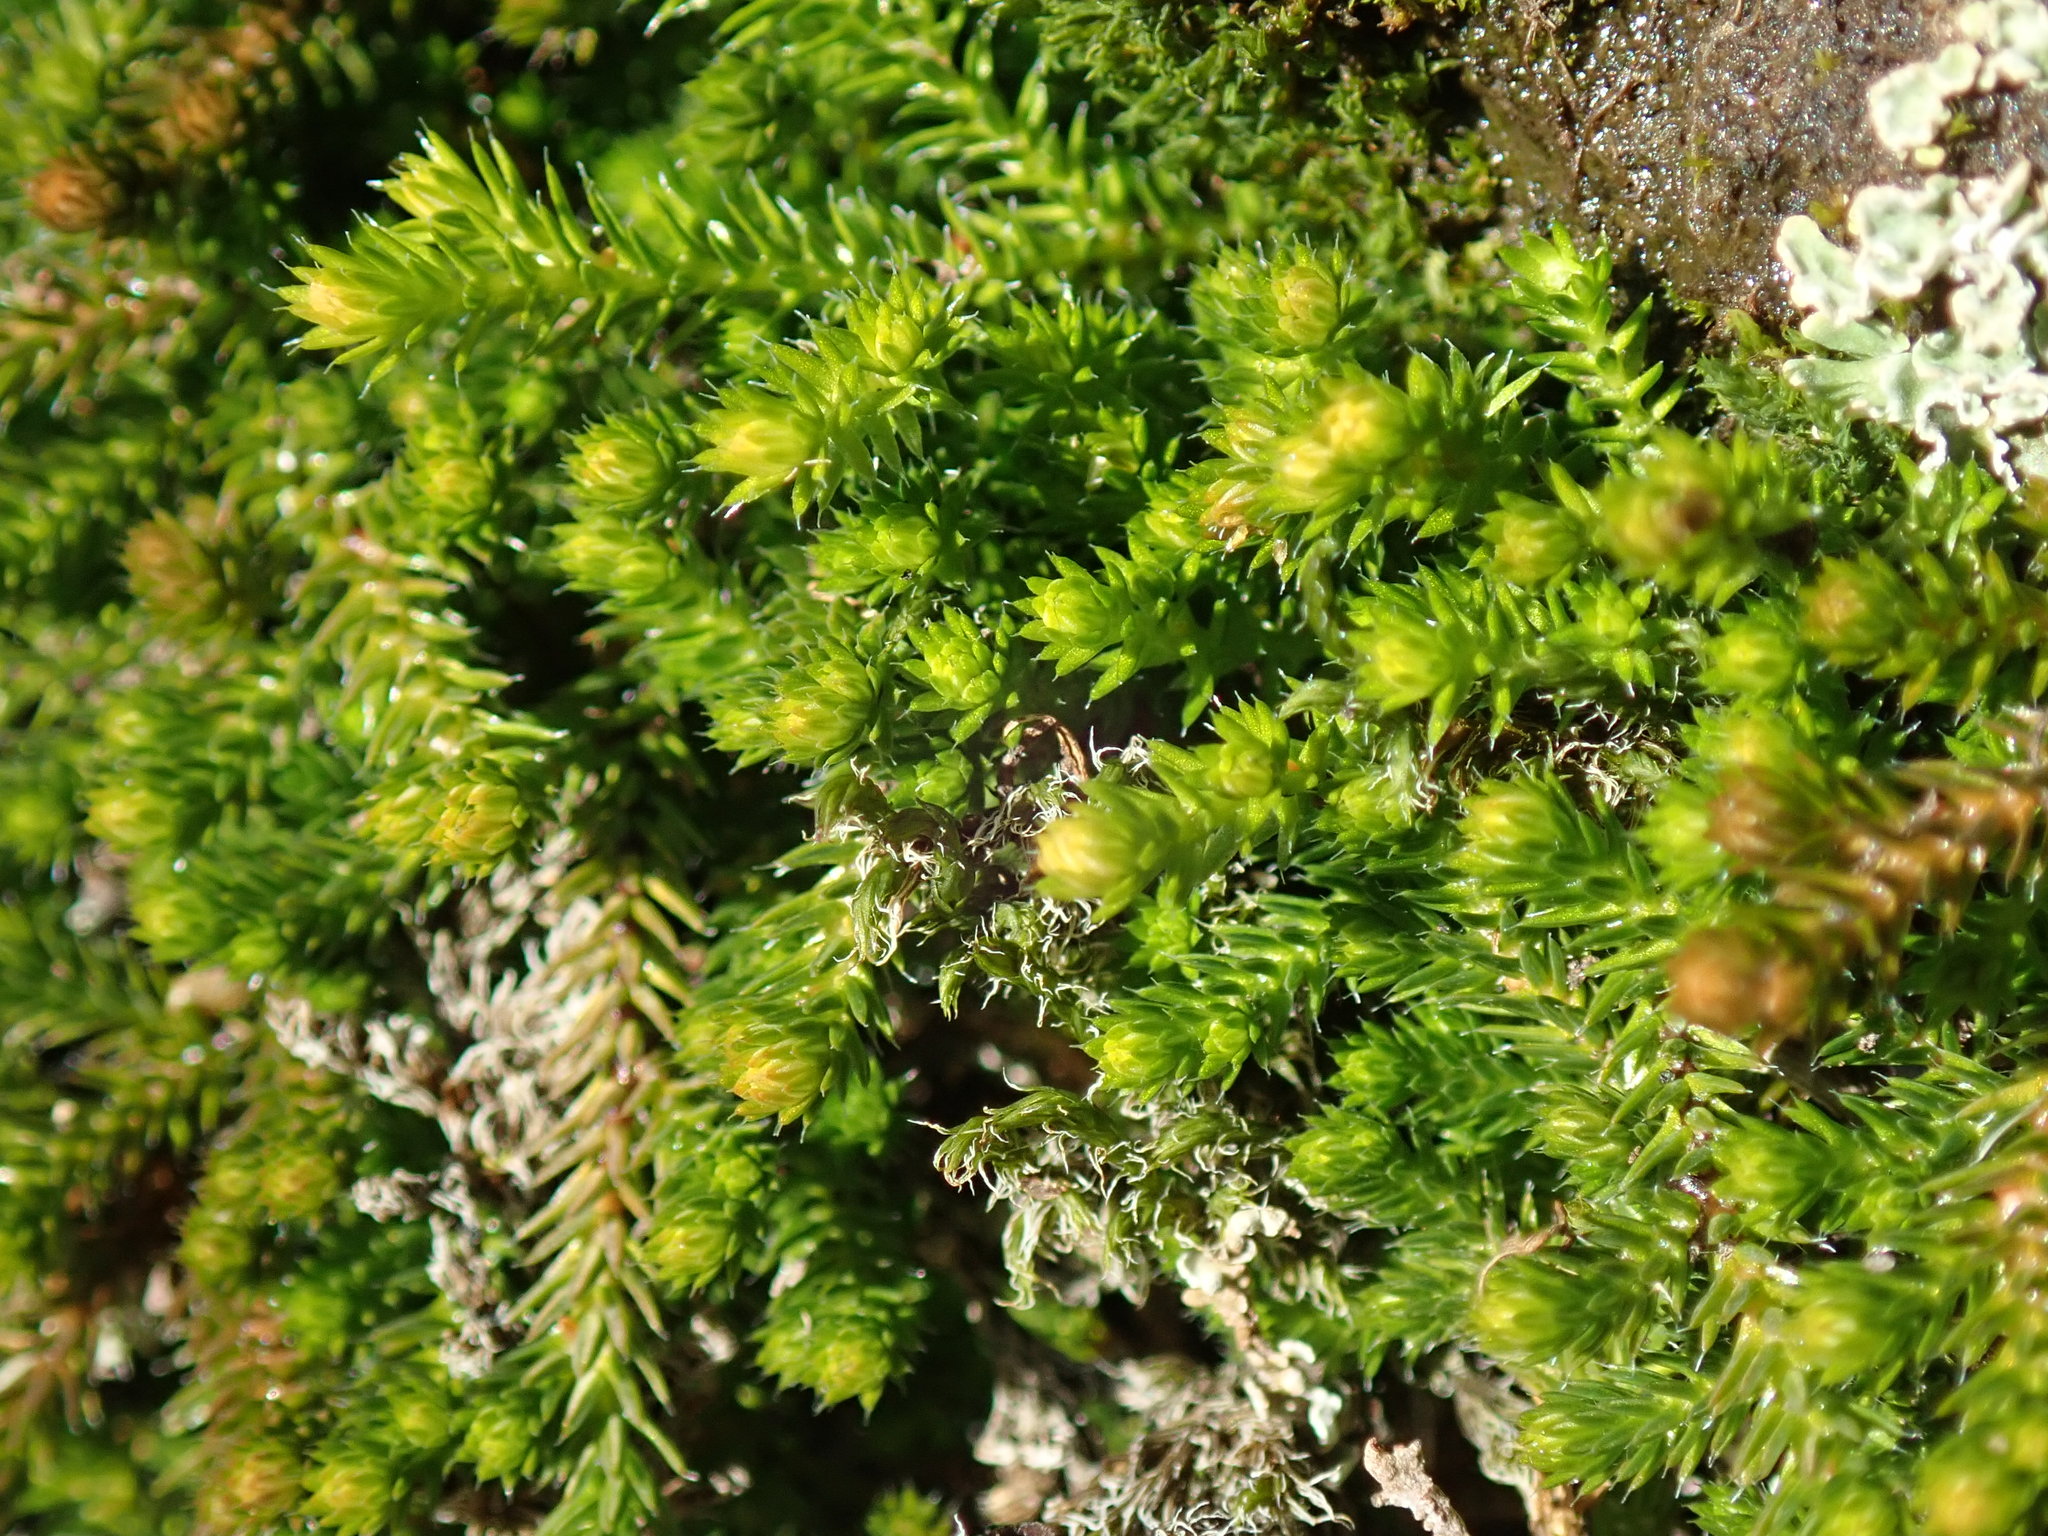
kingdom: Plantae
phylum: Tracheophyta
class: Lycopodiopsida
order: Selaginellales
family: Selaginellaceae
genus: Selaginella
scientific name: Selaginella wallacei
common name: Wallace's selaginella
